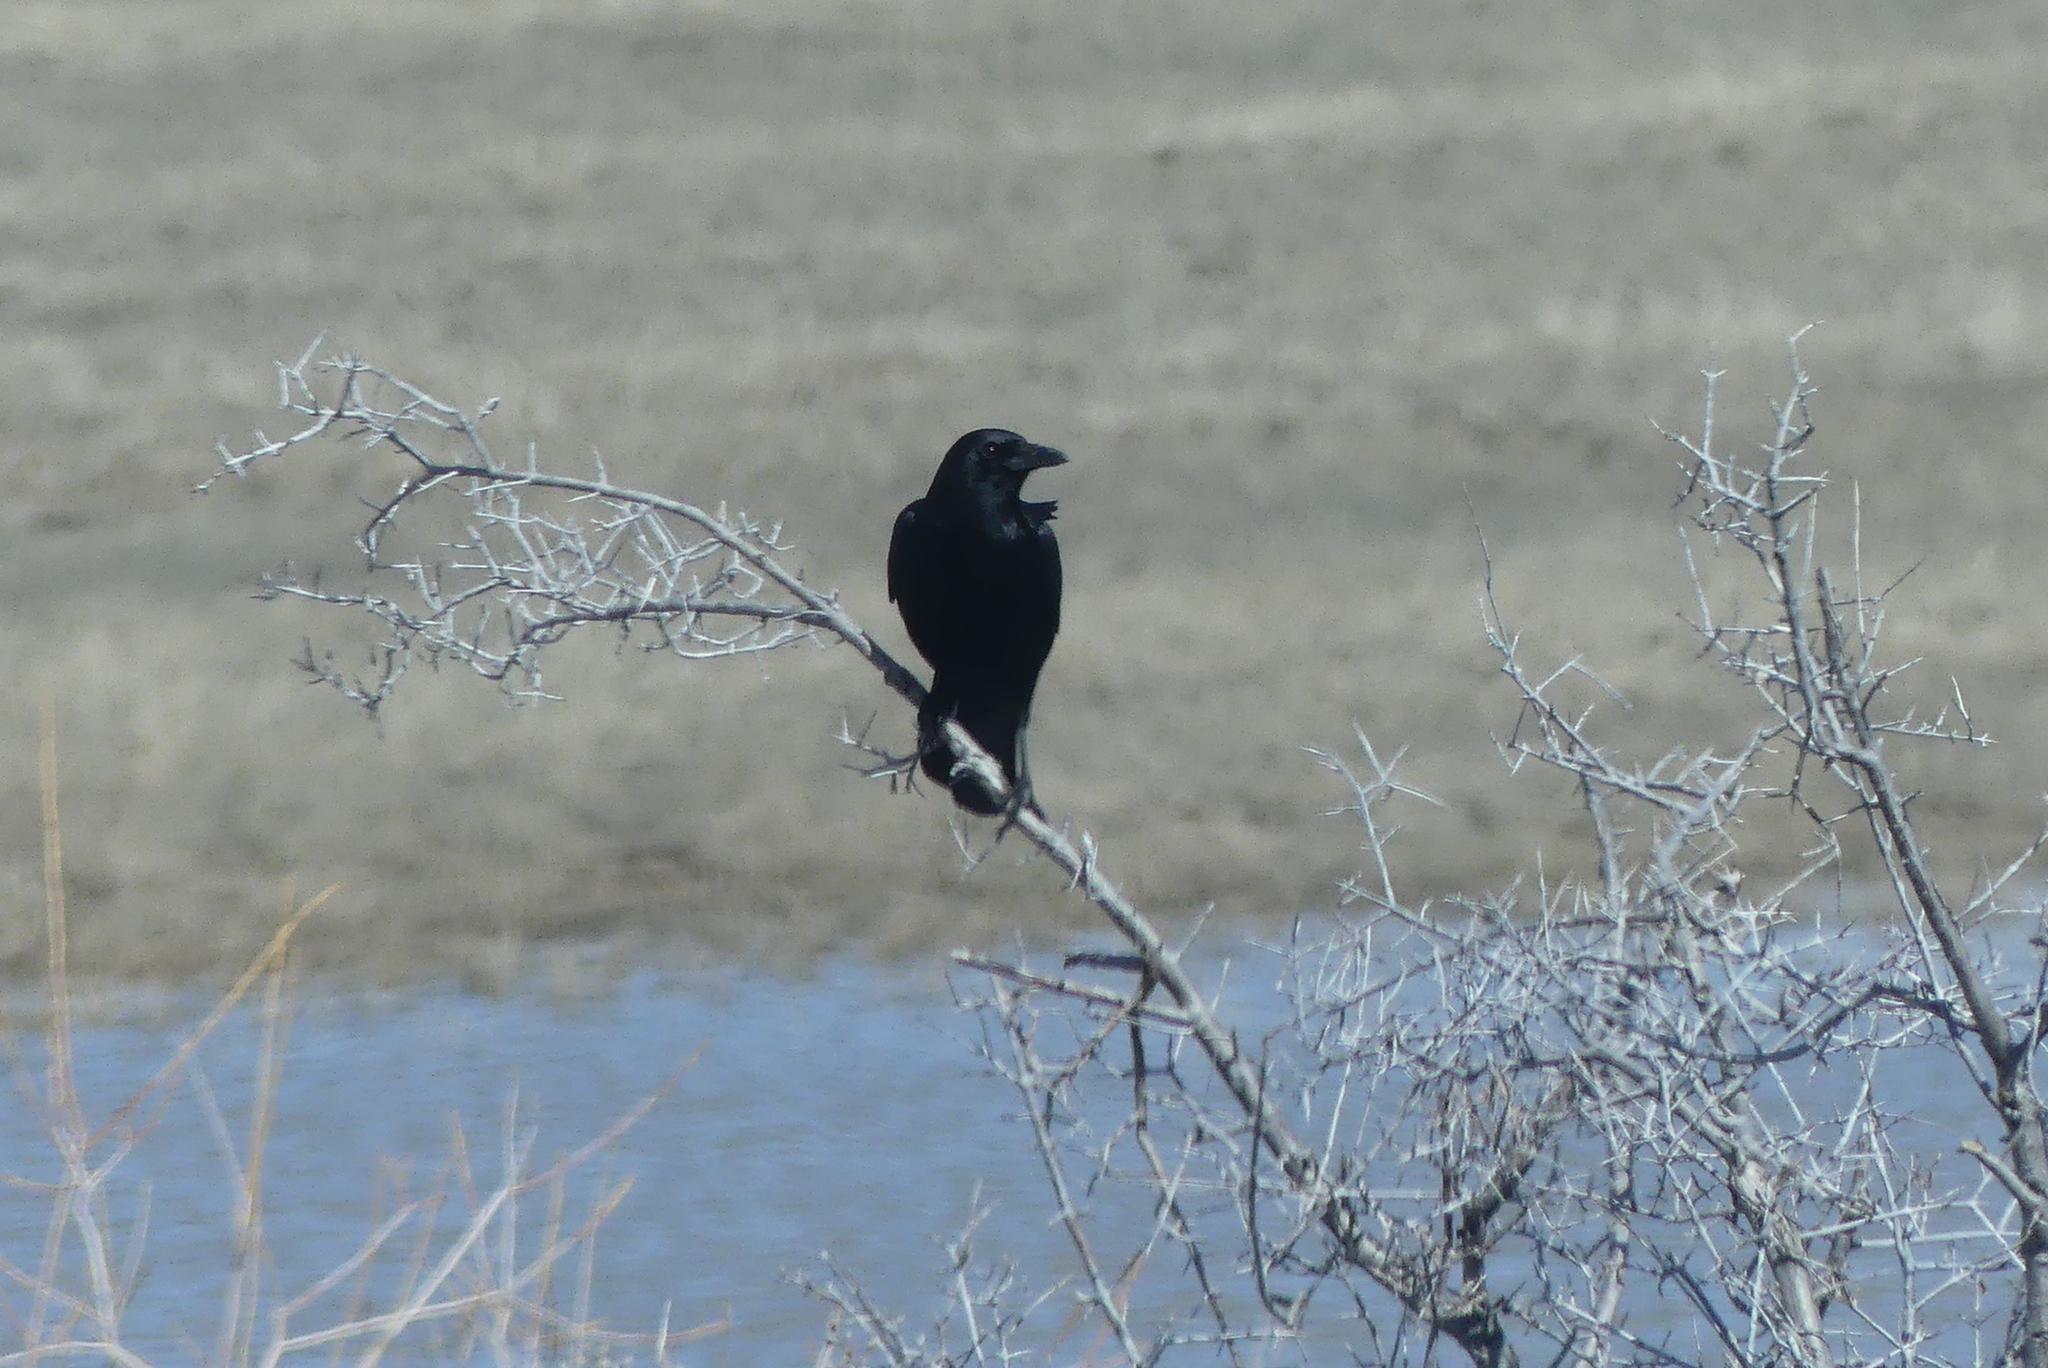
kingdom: Animalia
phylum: Chordata
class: Aves
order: Passeriformes
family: Corvidae
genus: Corvus
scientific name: Corvus brachyrhynchos
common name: American crow
